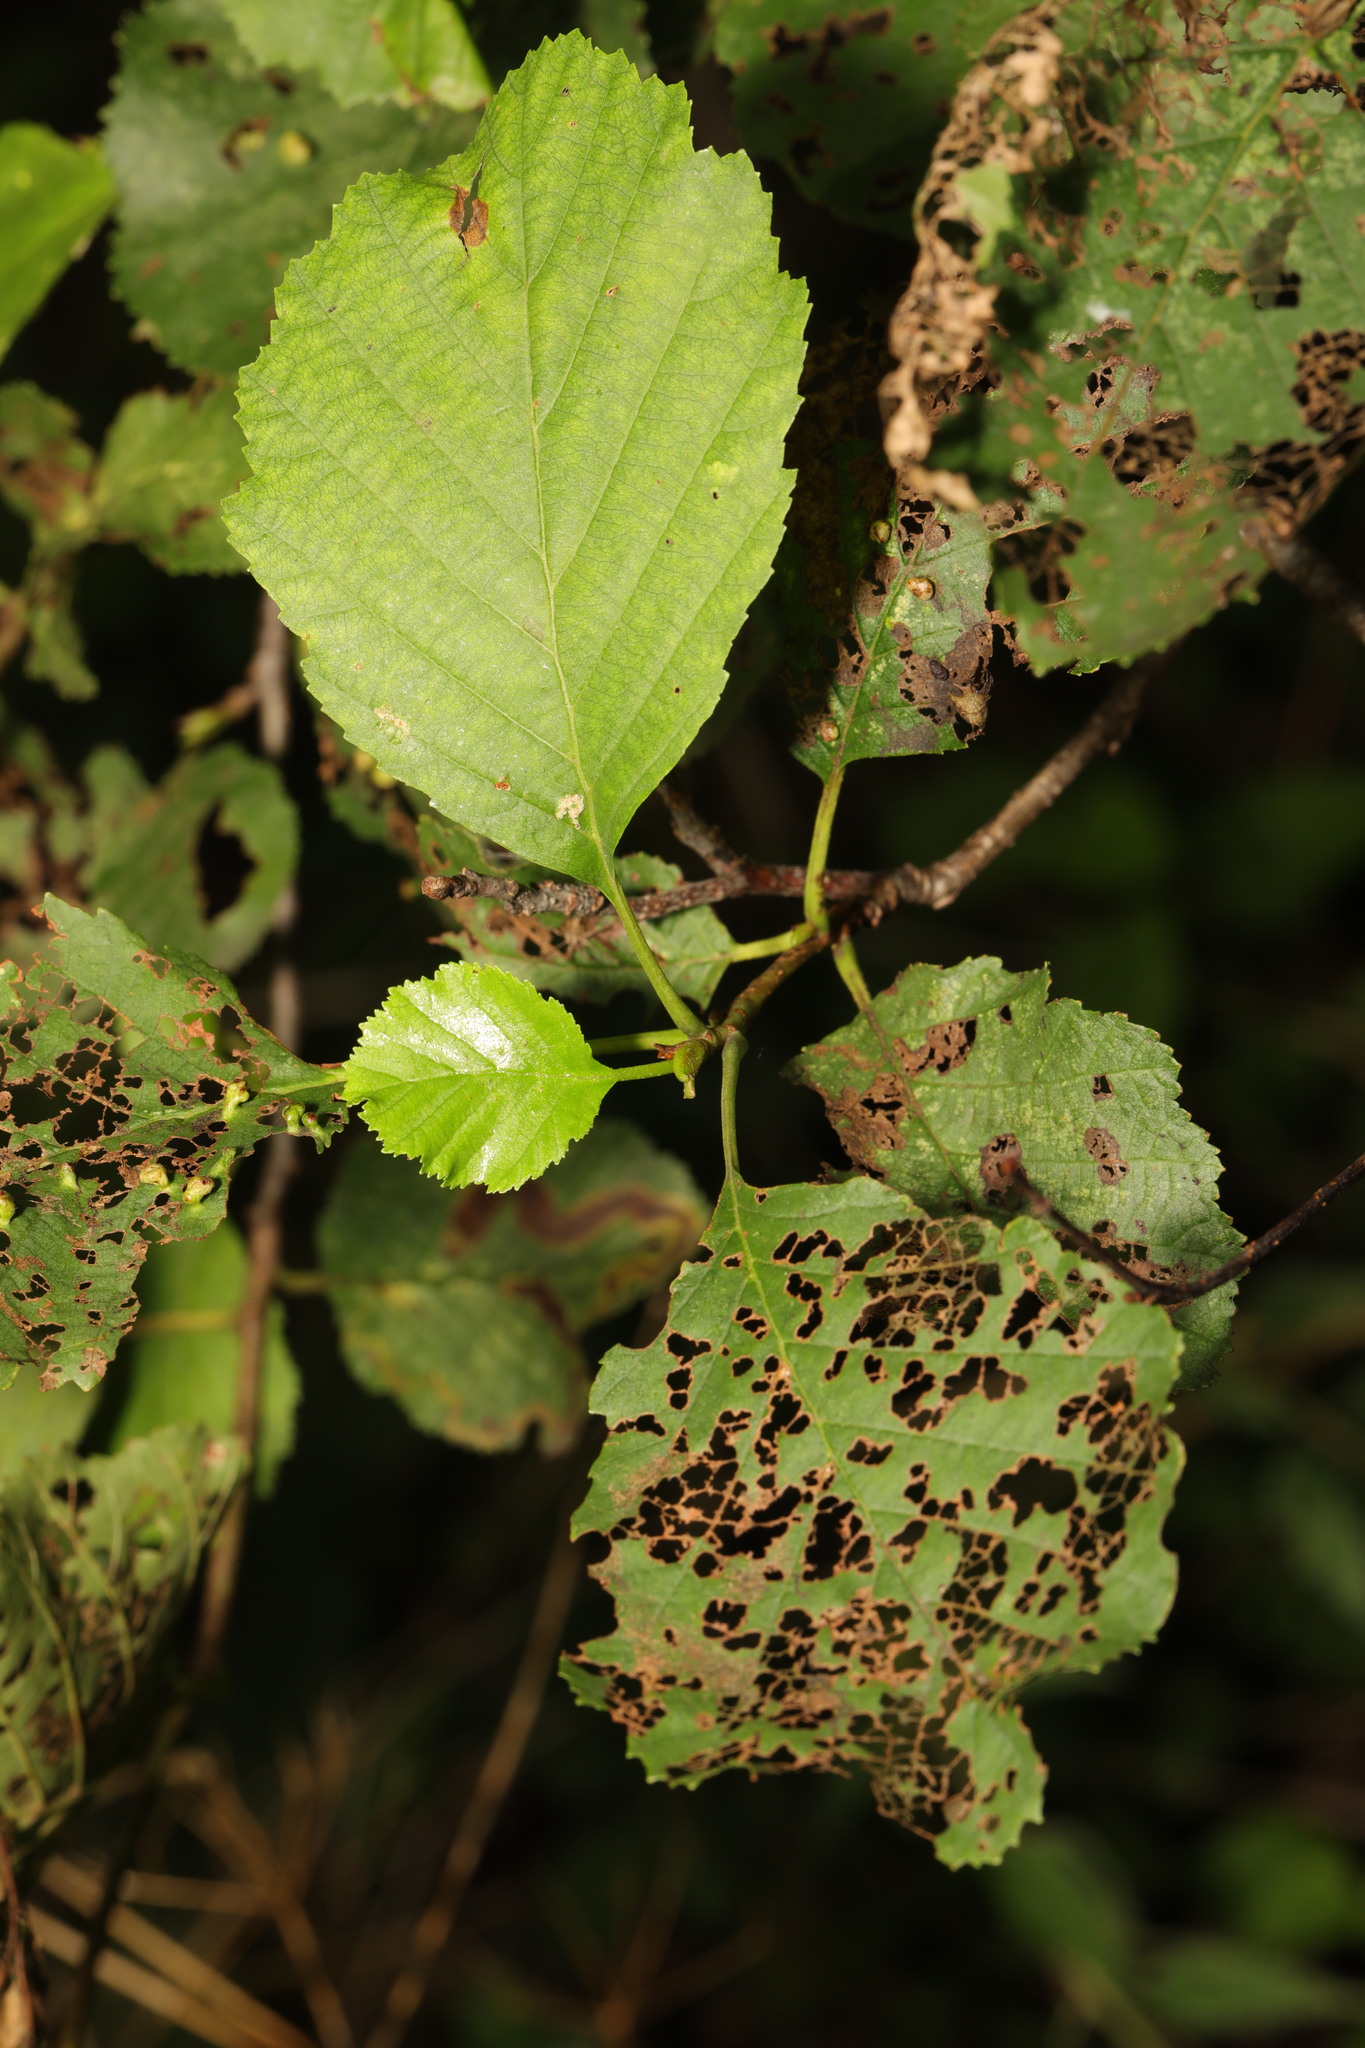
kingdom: Plantae
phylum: Tracheophyta
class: Magnoliopsida
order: Fagales
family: Betulaceae
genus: Alnus
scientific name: Alnus glutinosa
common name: Black alder
